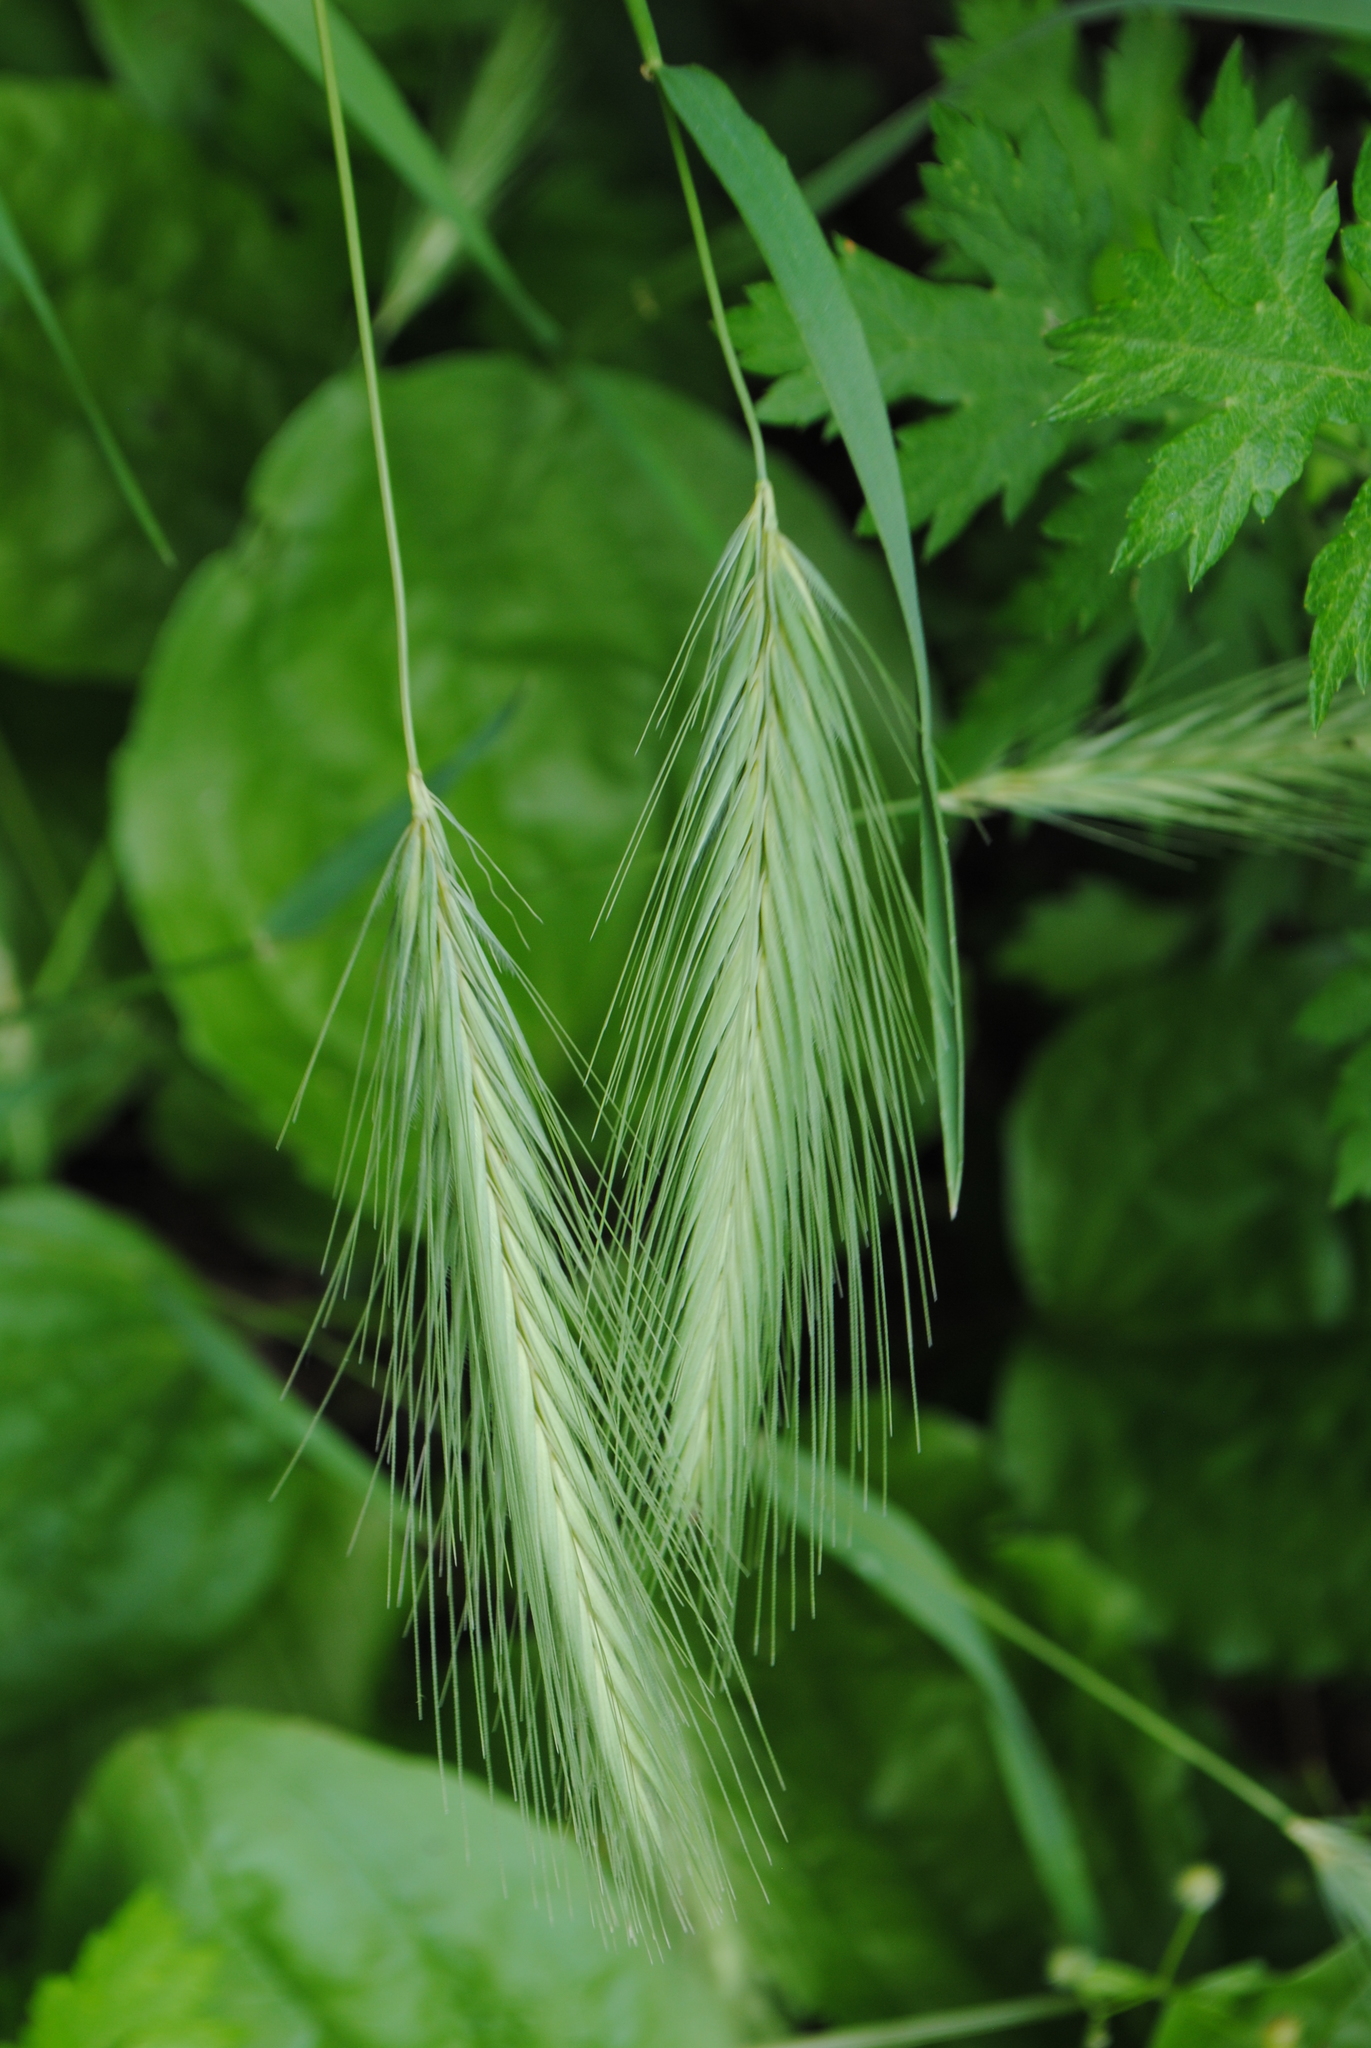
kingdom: Plantae
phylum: Tracheophyta
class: Liliopsida
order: Poales
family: Poaceae
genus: Hordeum
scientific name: Hordeum murinum
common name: Wall barley
